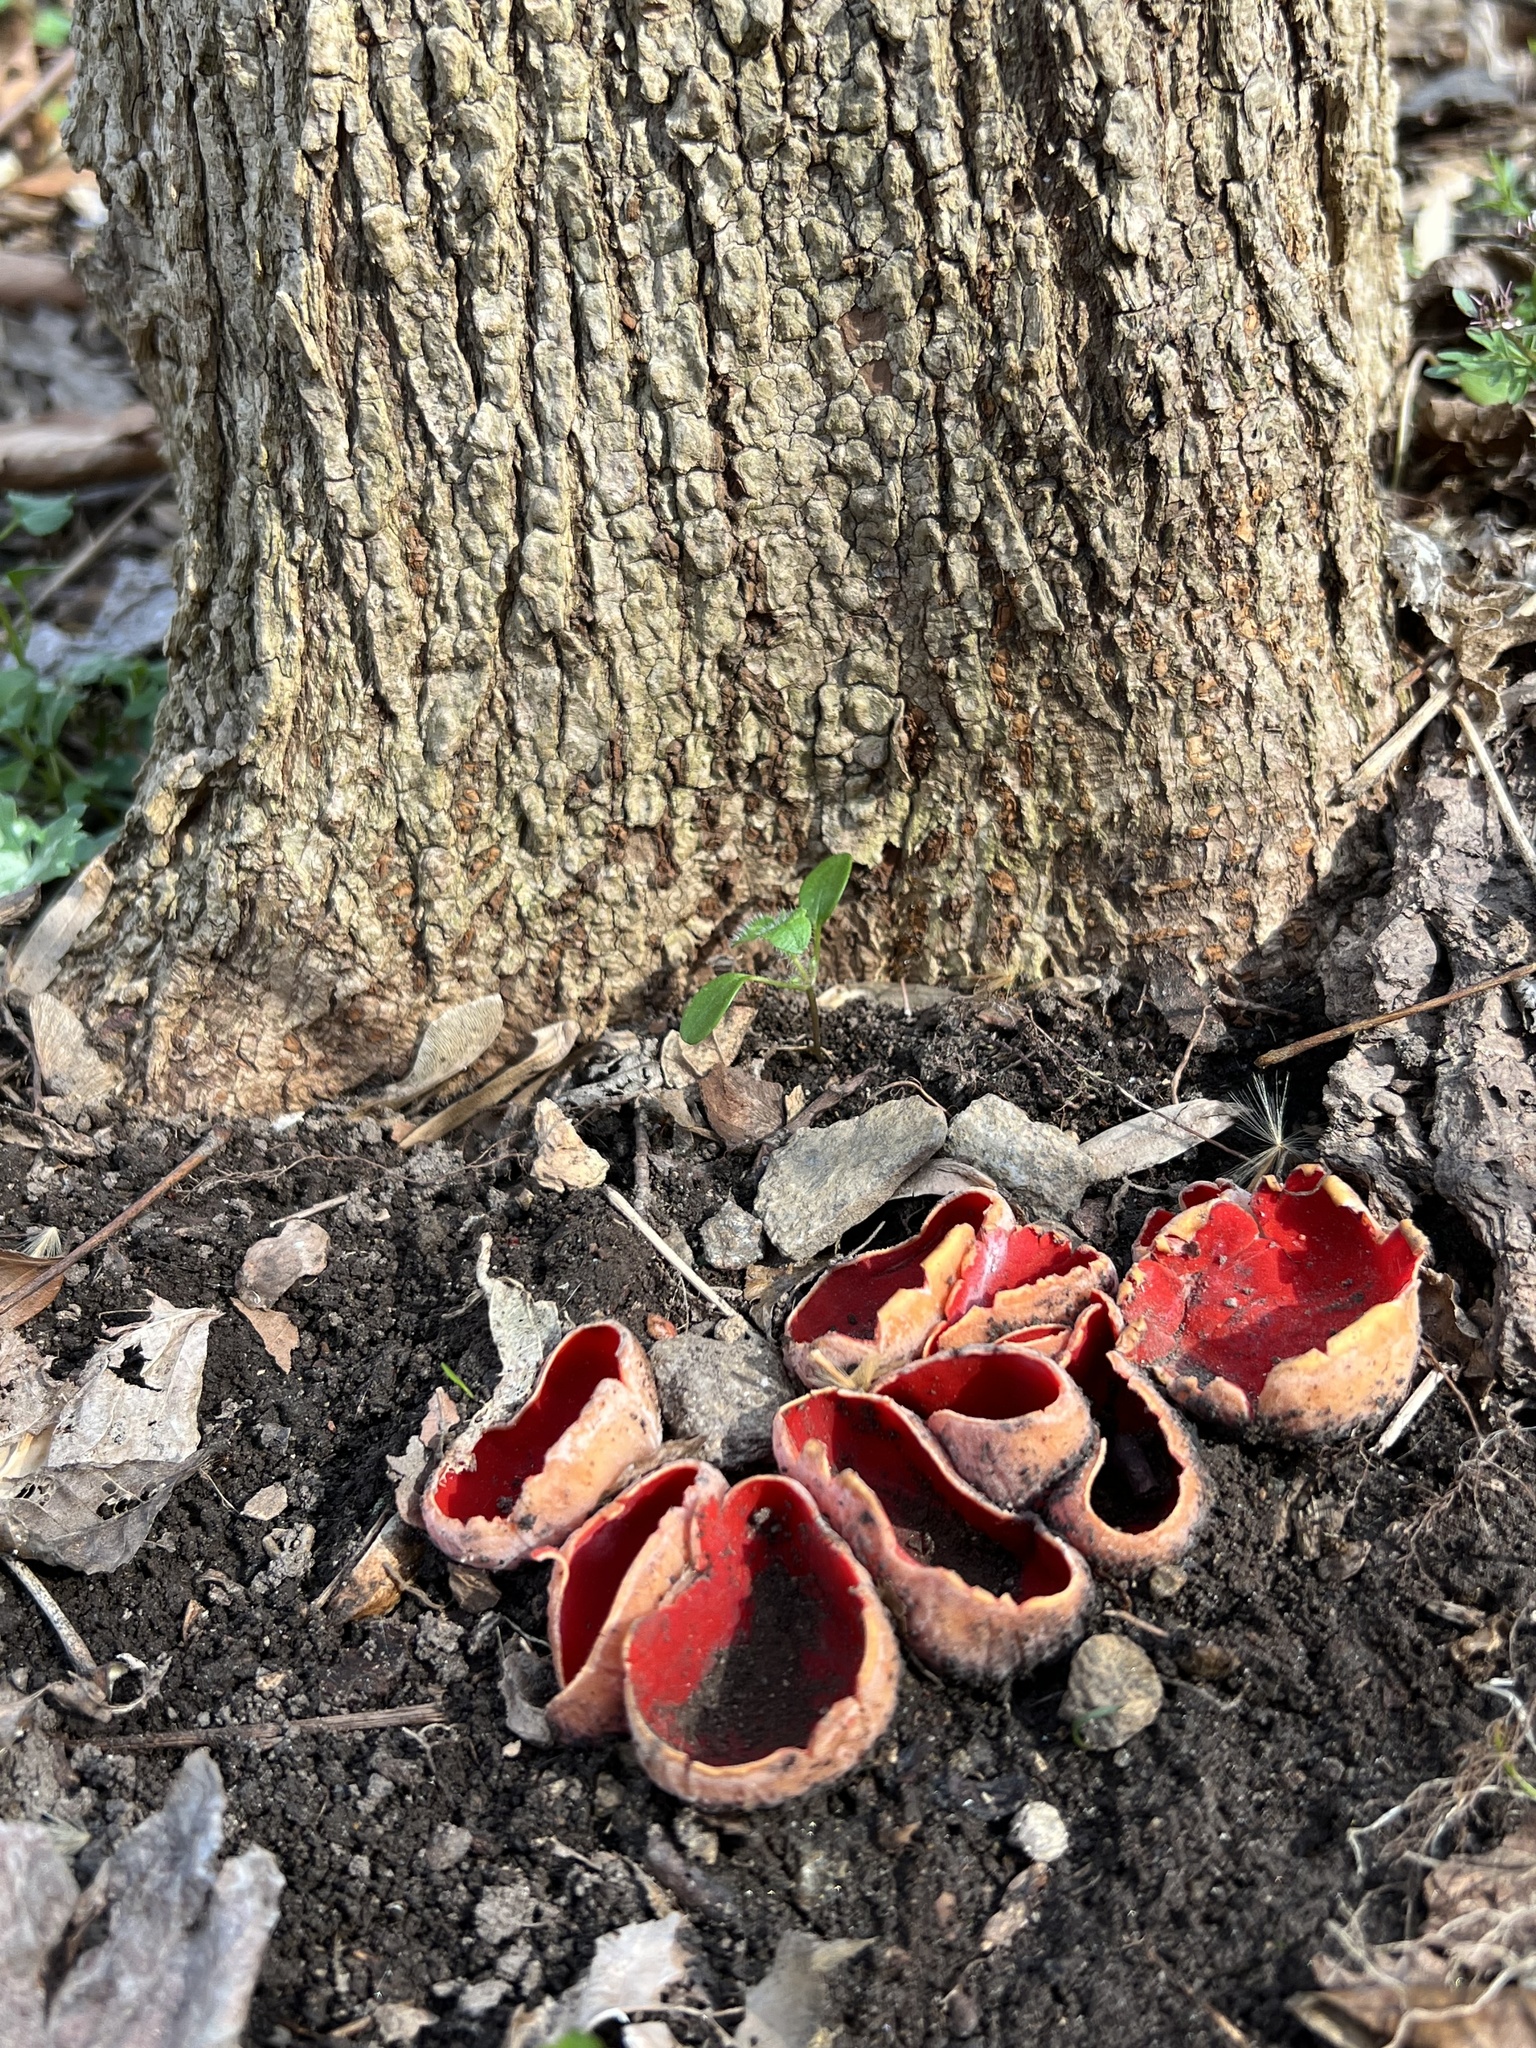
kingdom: Fungi
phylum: Ascomycota
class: Pezizomycetes
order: Pezizales
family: Sarcoscyphaceae
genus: Sarcoscypha
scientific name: Sarcoscypha austriaca
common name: Scarlet elfcup
